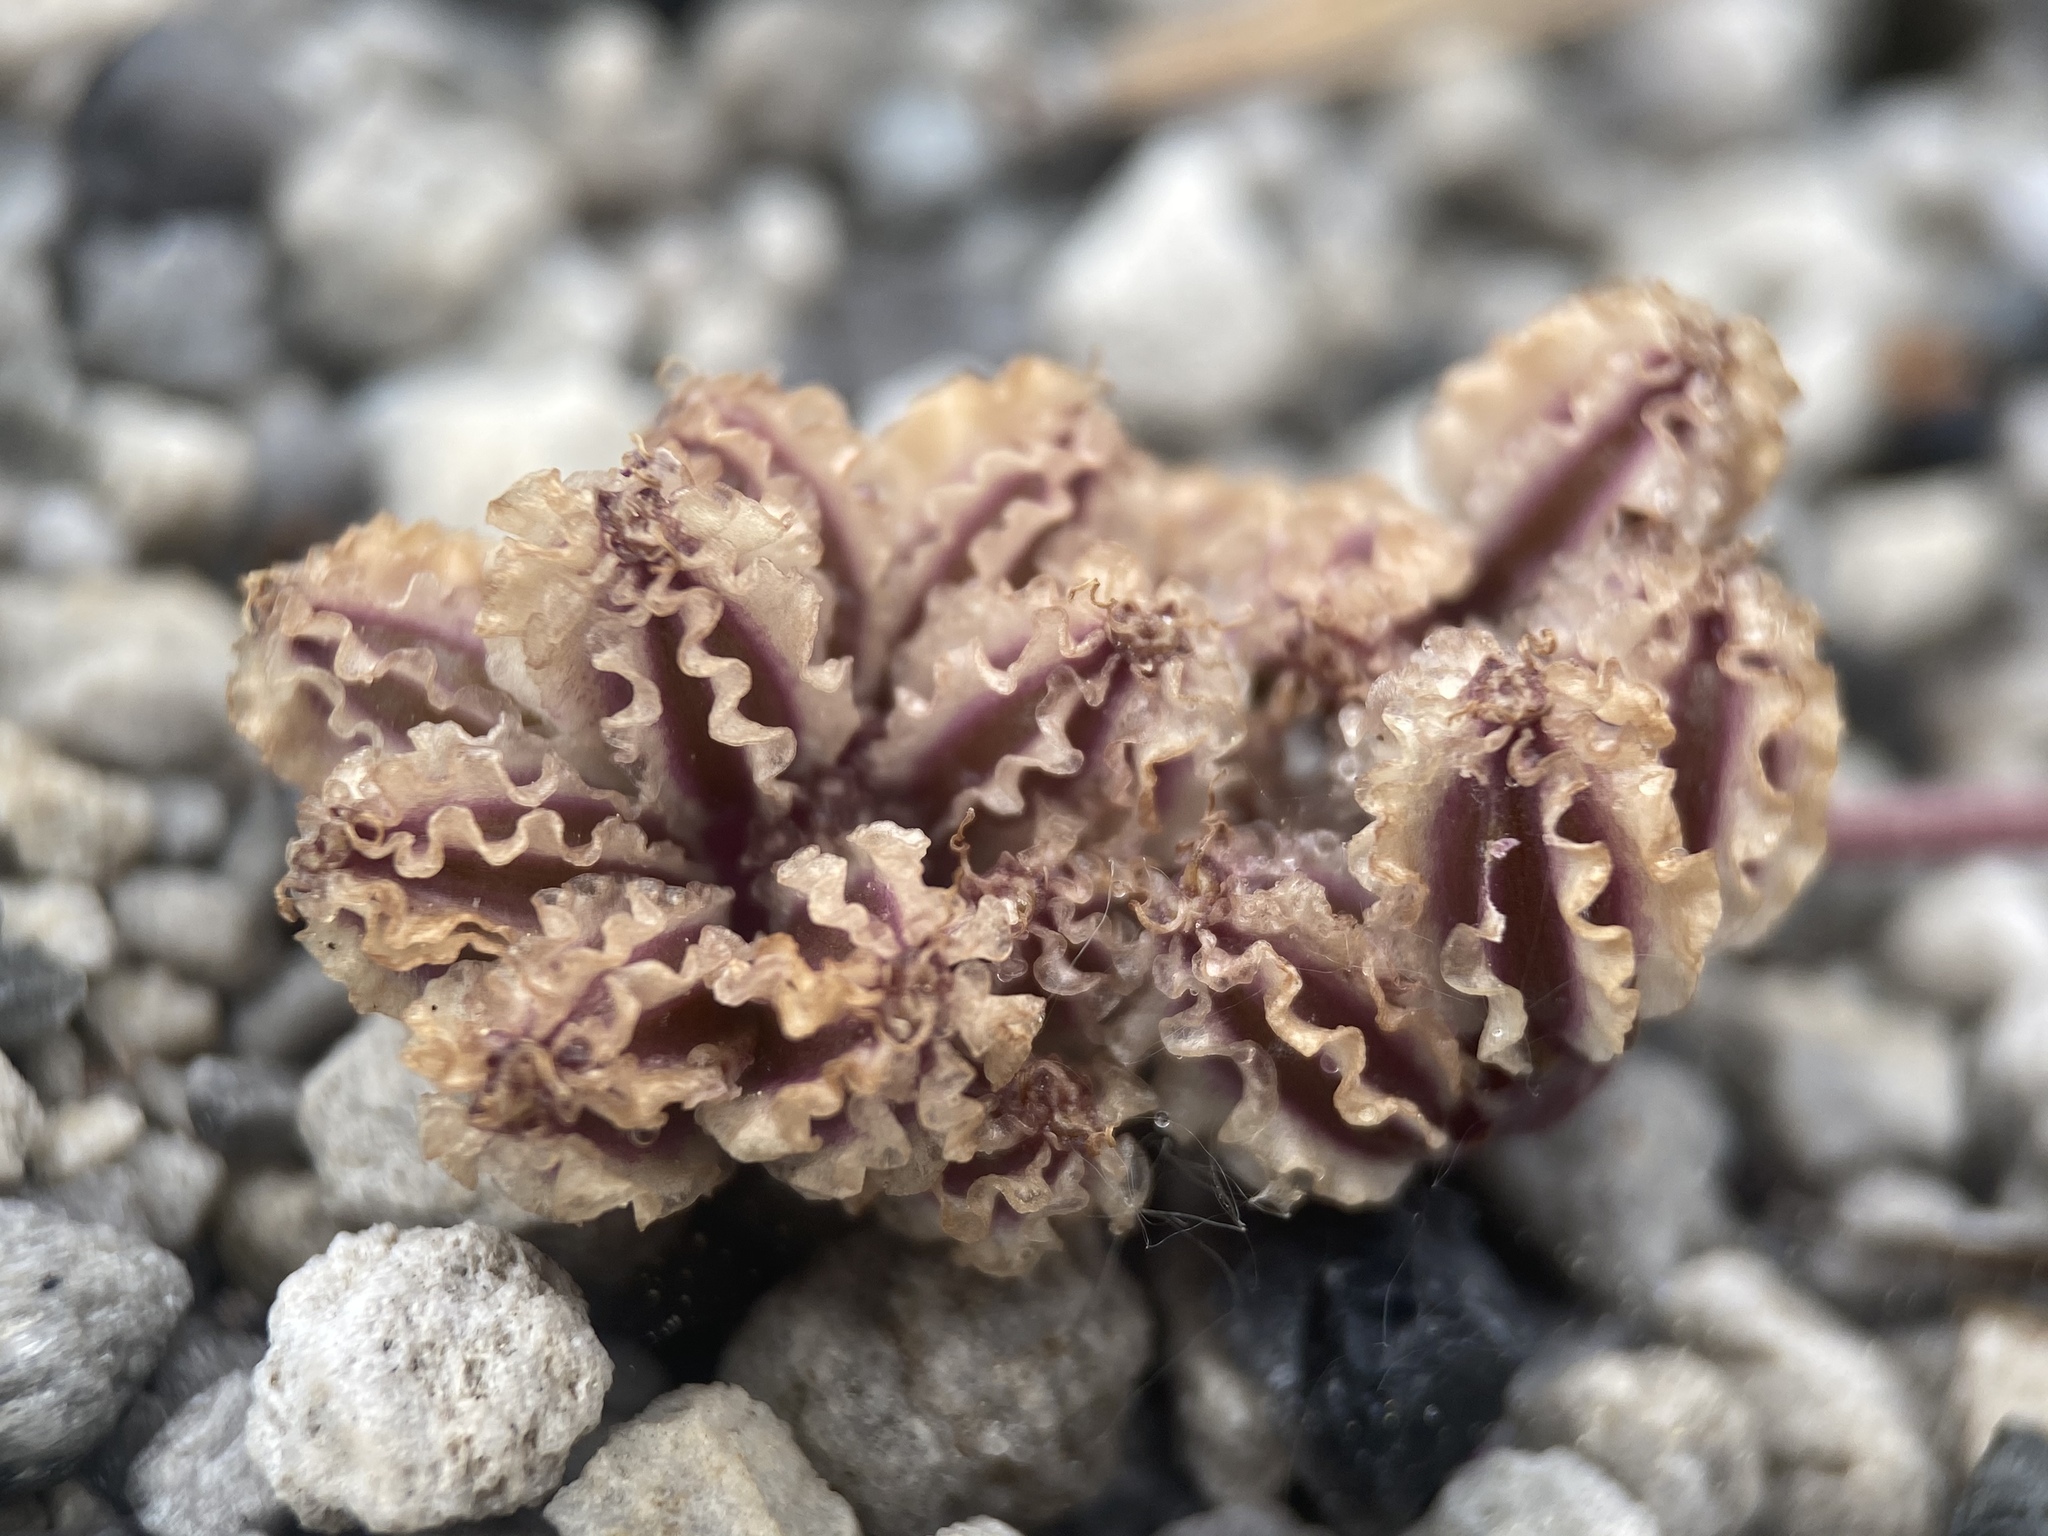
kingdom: Plantae
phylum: Tracheophyta
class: Magnoliopsida
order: Apiales
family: Apiaceae
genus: Aulospermum
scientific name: Aulospermum cinerarium
